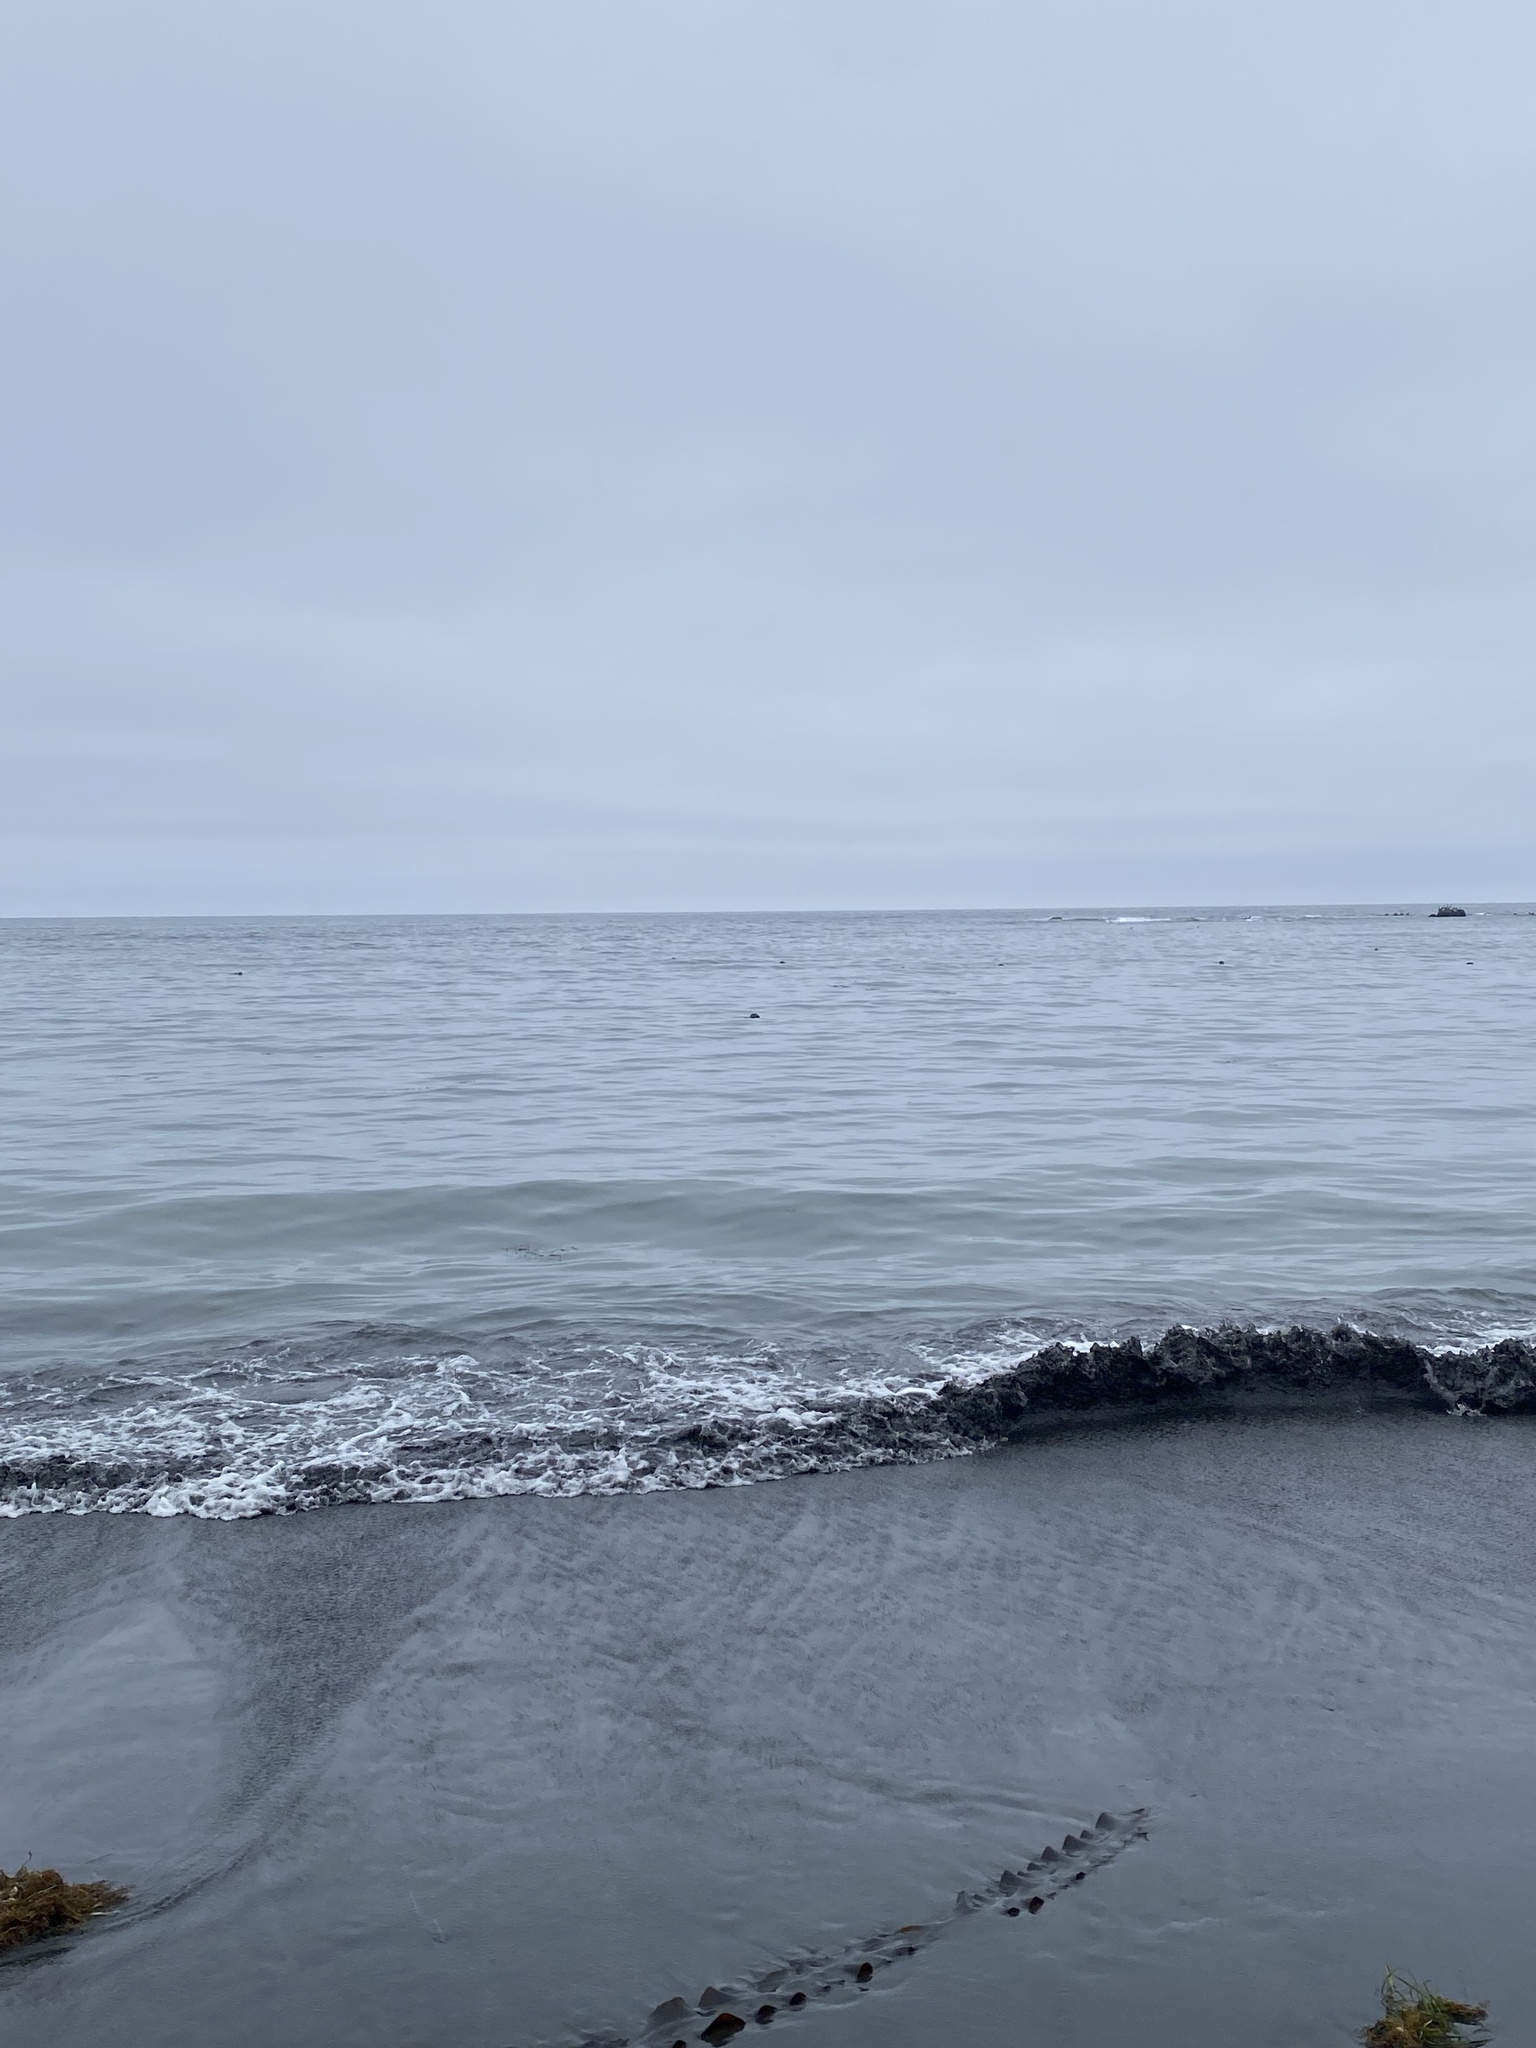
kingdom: Animalia
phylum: Chordata
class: Mammalia
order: Carnivora
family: Mustelidae
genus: Enhydra
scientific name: Enhydra lutris
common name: Sea otter
